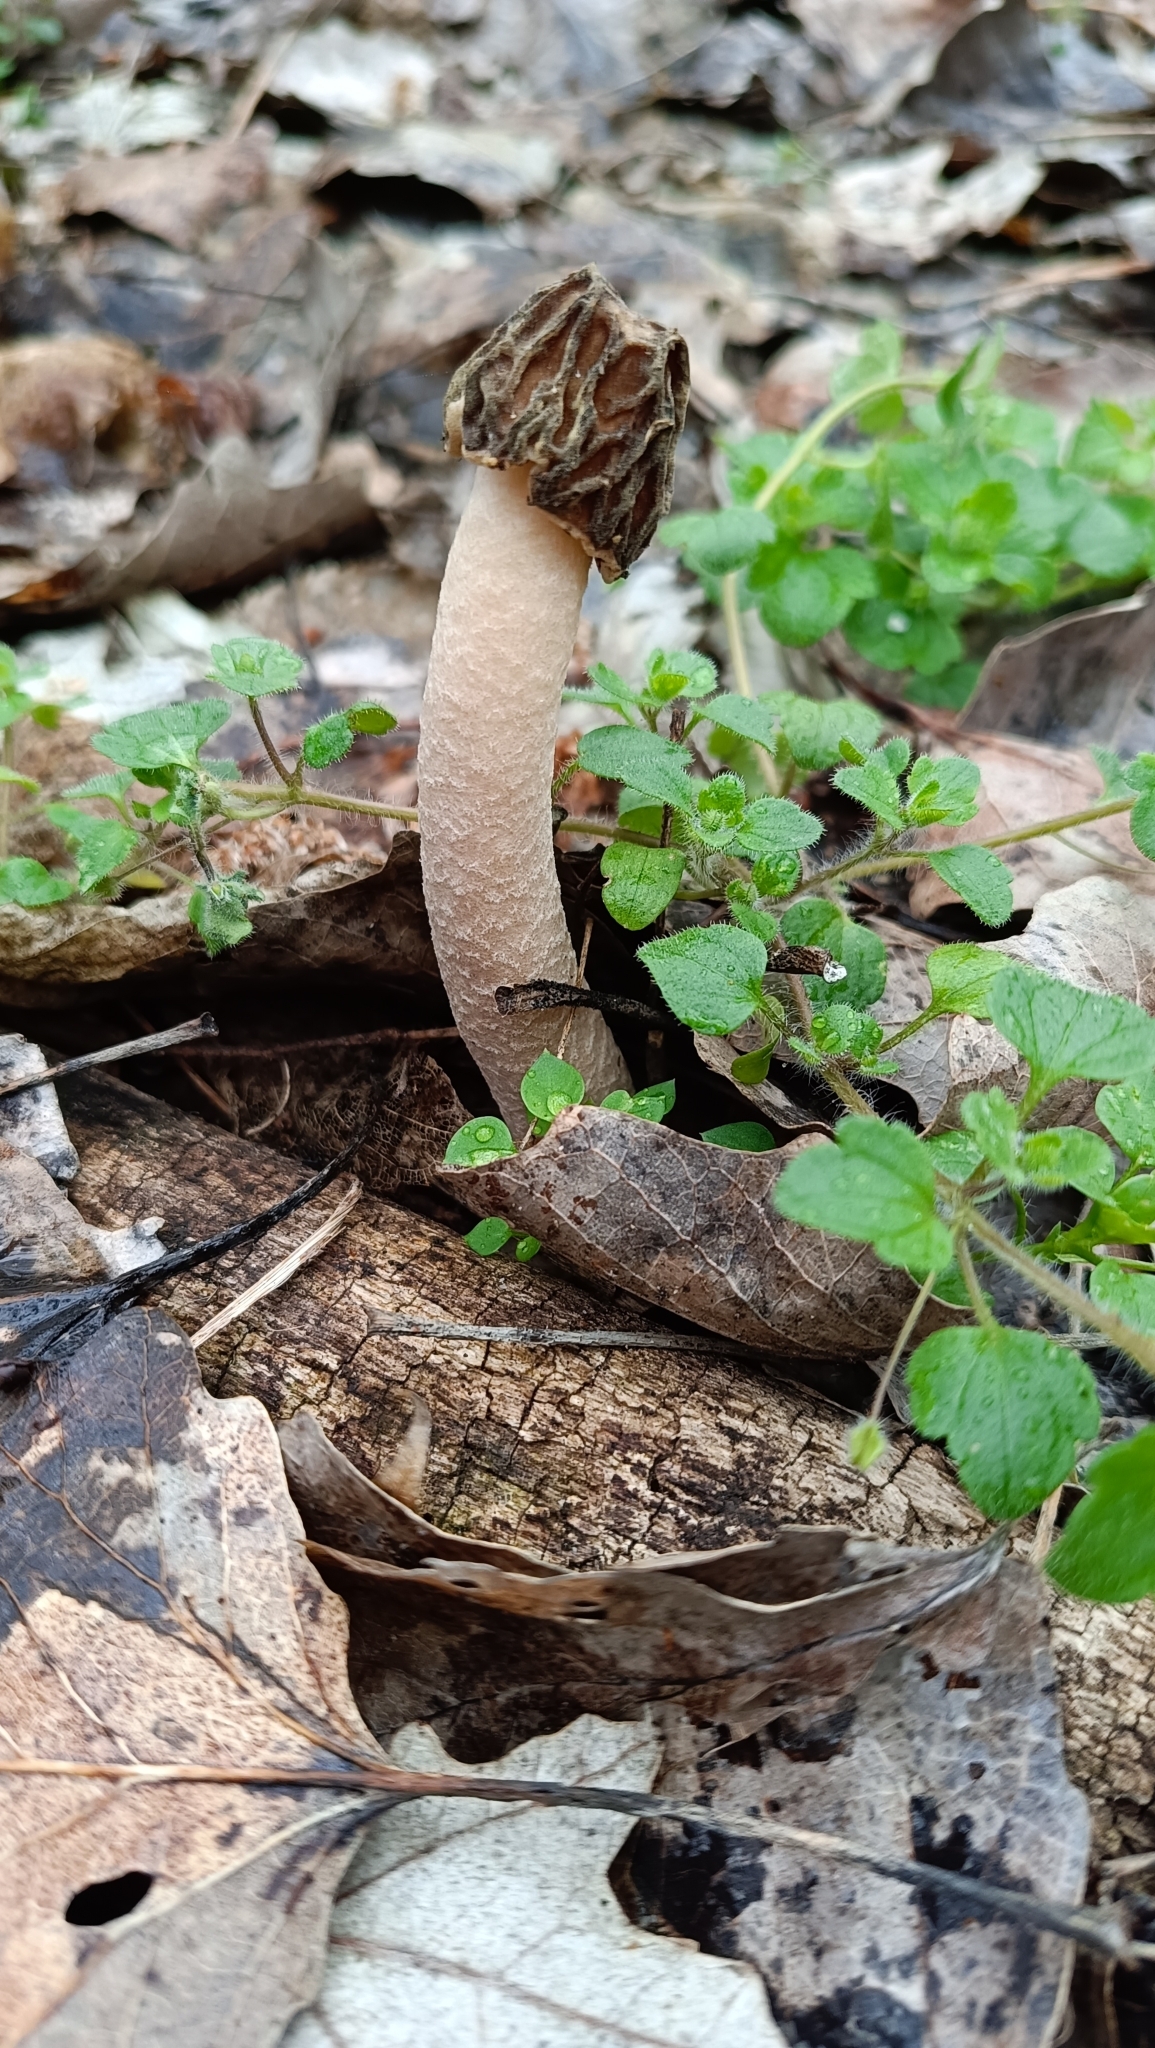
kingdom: Fungi
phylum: Ascomycota
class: Pezizomycetes
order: Pezizales
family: Morchellaceae
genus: Verpa
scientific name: Verpa bohemica
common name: Wrinkled thimble morel
